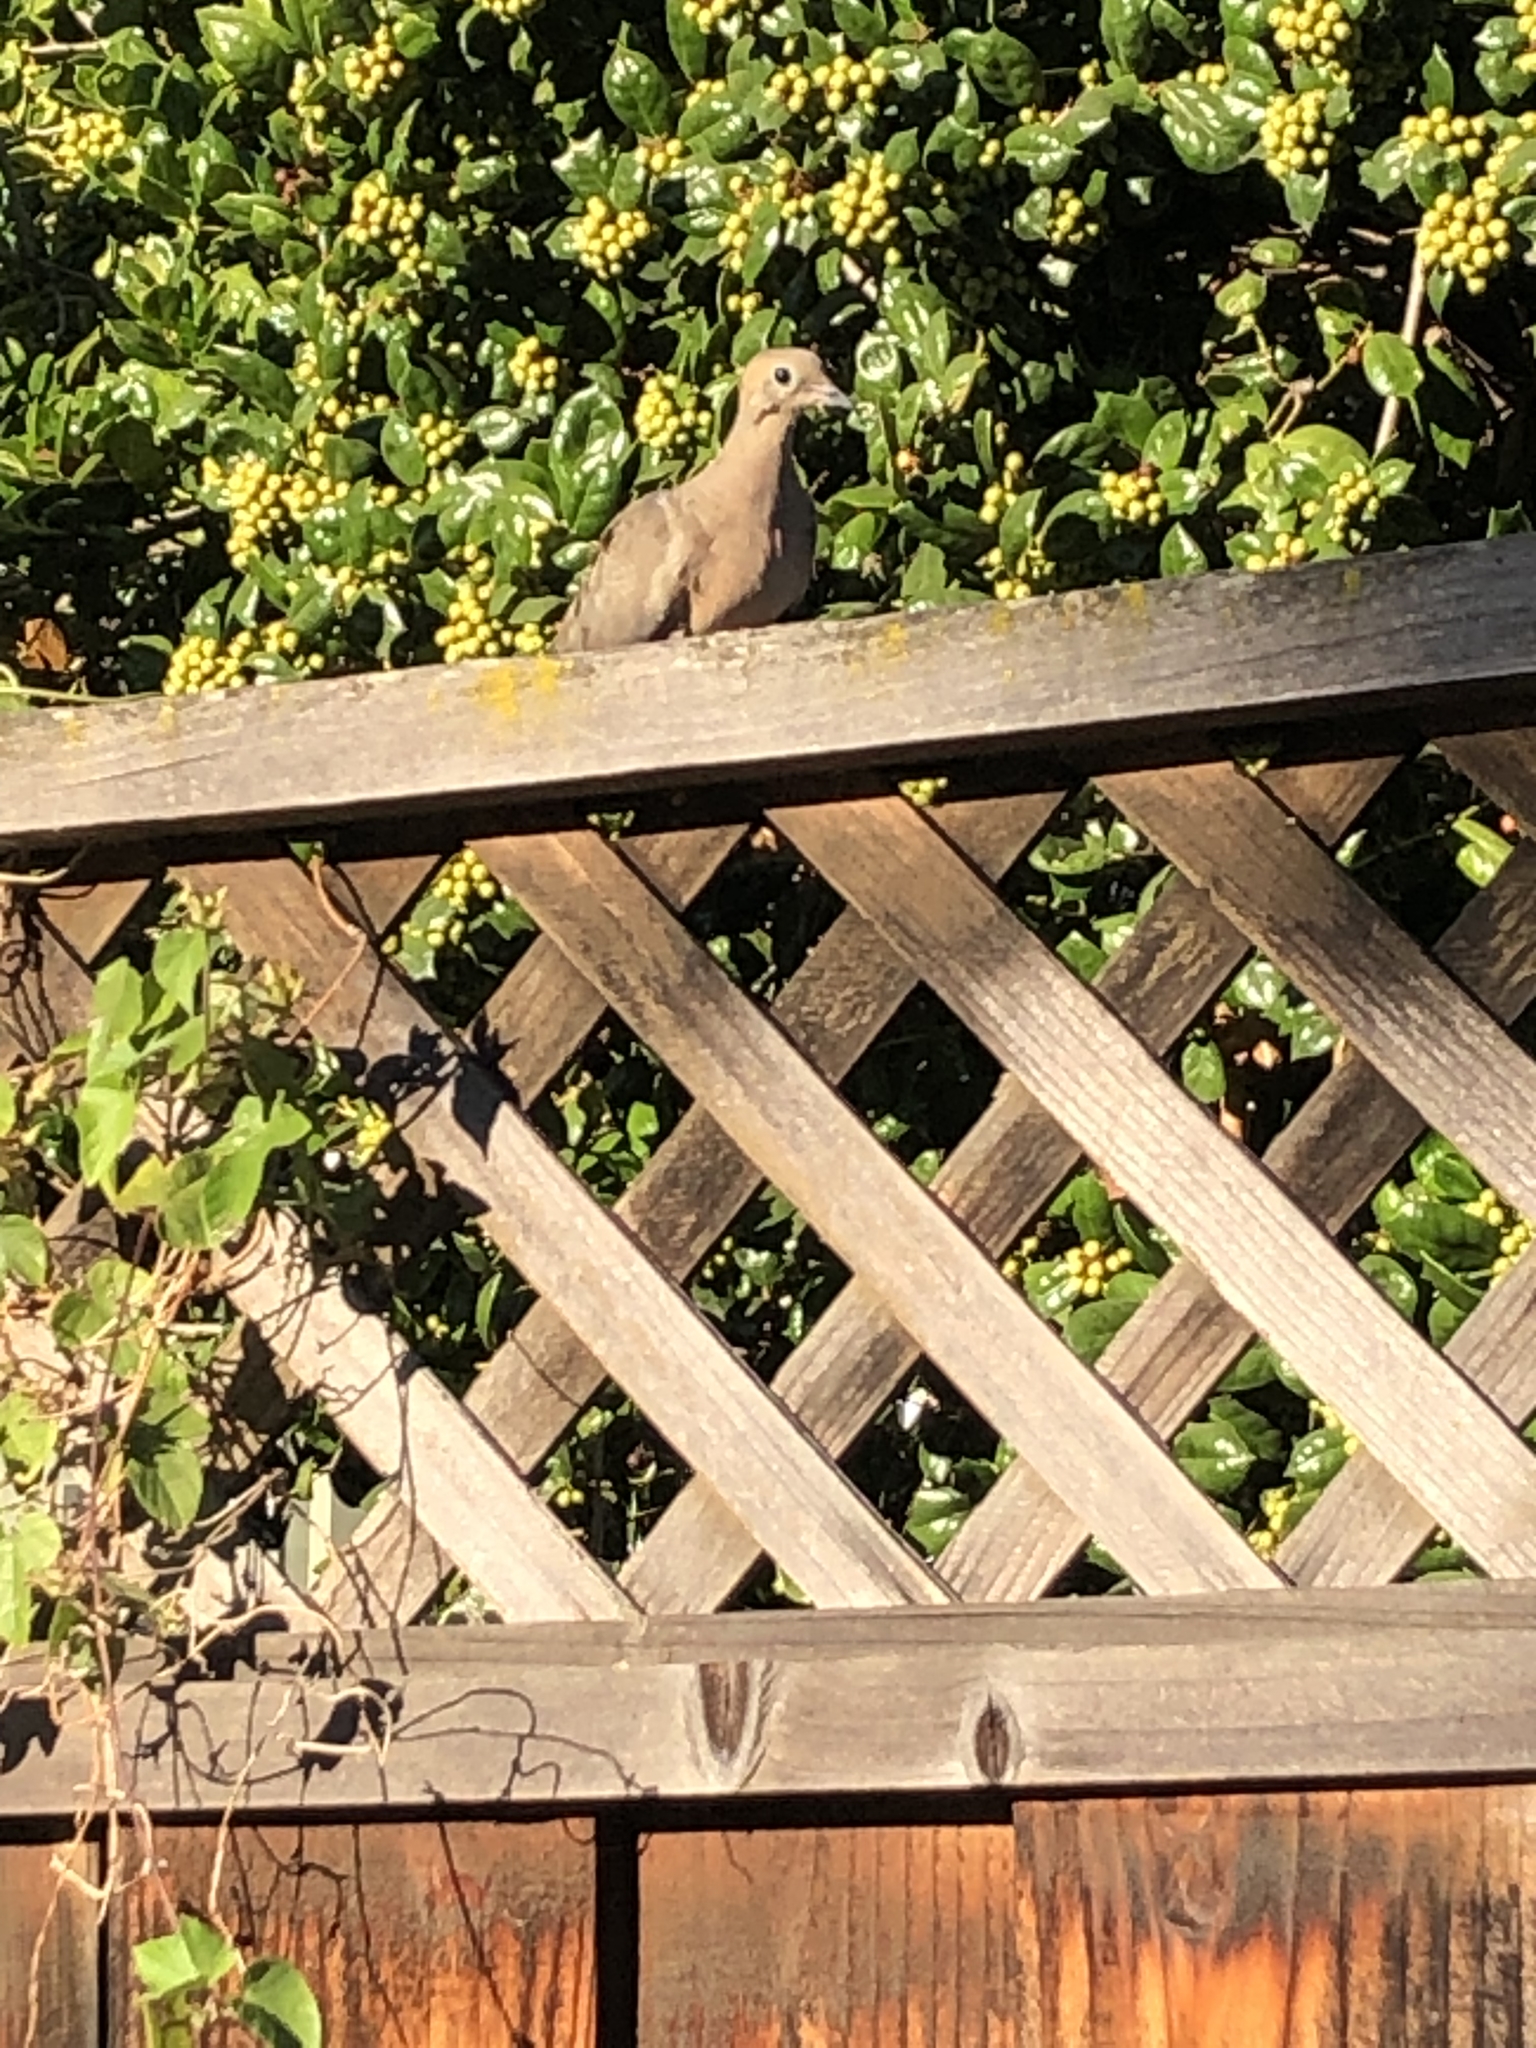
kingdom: Animalia
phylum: Chordata
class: Aves
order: Columbiformes
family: Columbidae
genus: Zenaida
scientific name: Zenaida macroura
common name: Mourning dove
